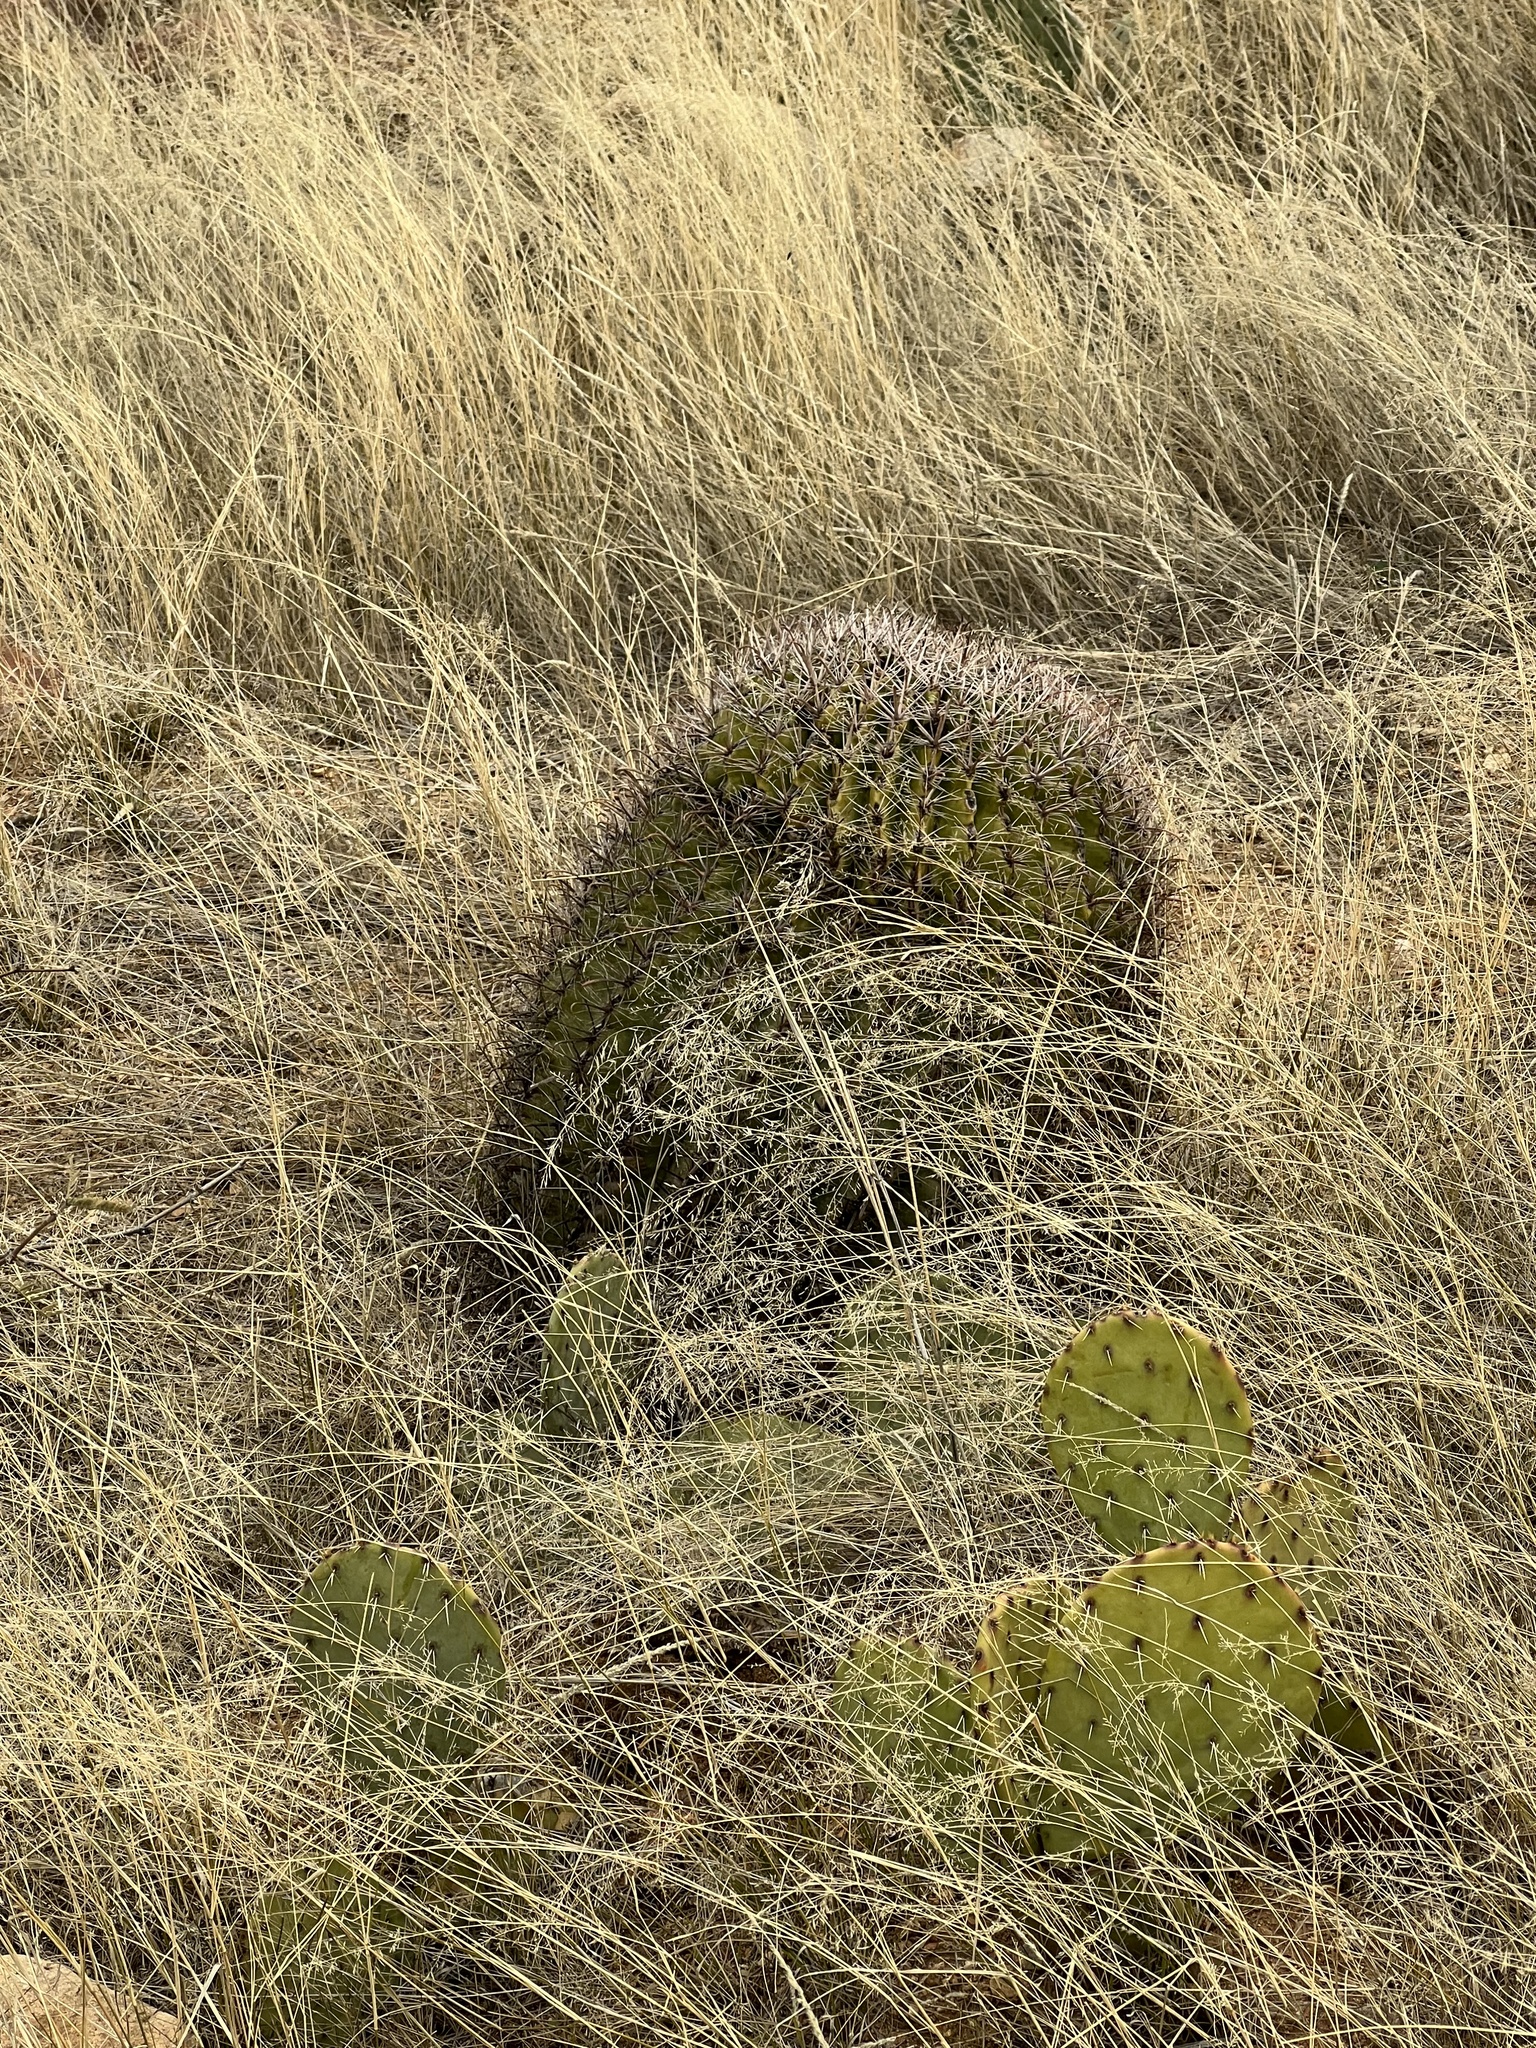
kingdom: Plantae
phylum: Tracheophyta
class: Magnoliopsida
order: Caryophyllales
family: Cactaceae
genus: Ferocactus
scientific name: Ferocactus wislizeni
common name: Candy barrel cactus
